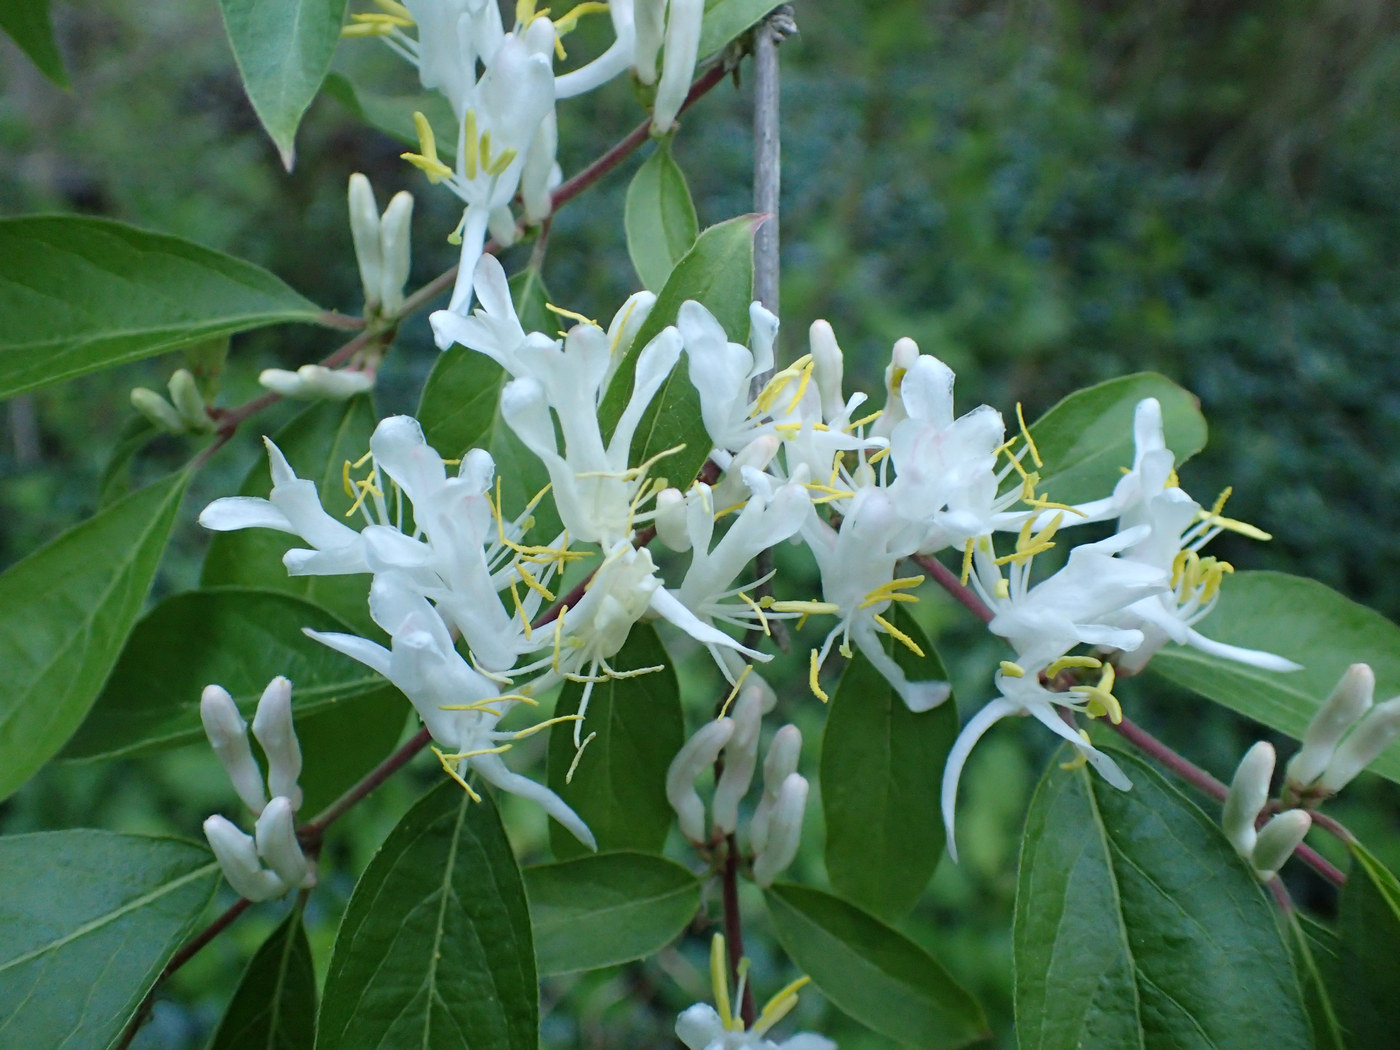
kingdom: Plantae
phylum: Tracheophyta
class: Magnoliopsida
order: Dipsacales
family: Caprifoliaceae
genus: Lonicera
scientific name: Lonicera maackii
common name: Amur honeysuckle
